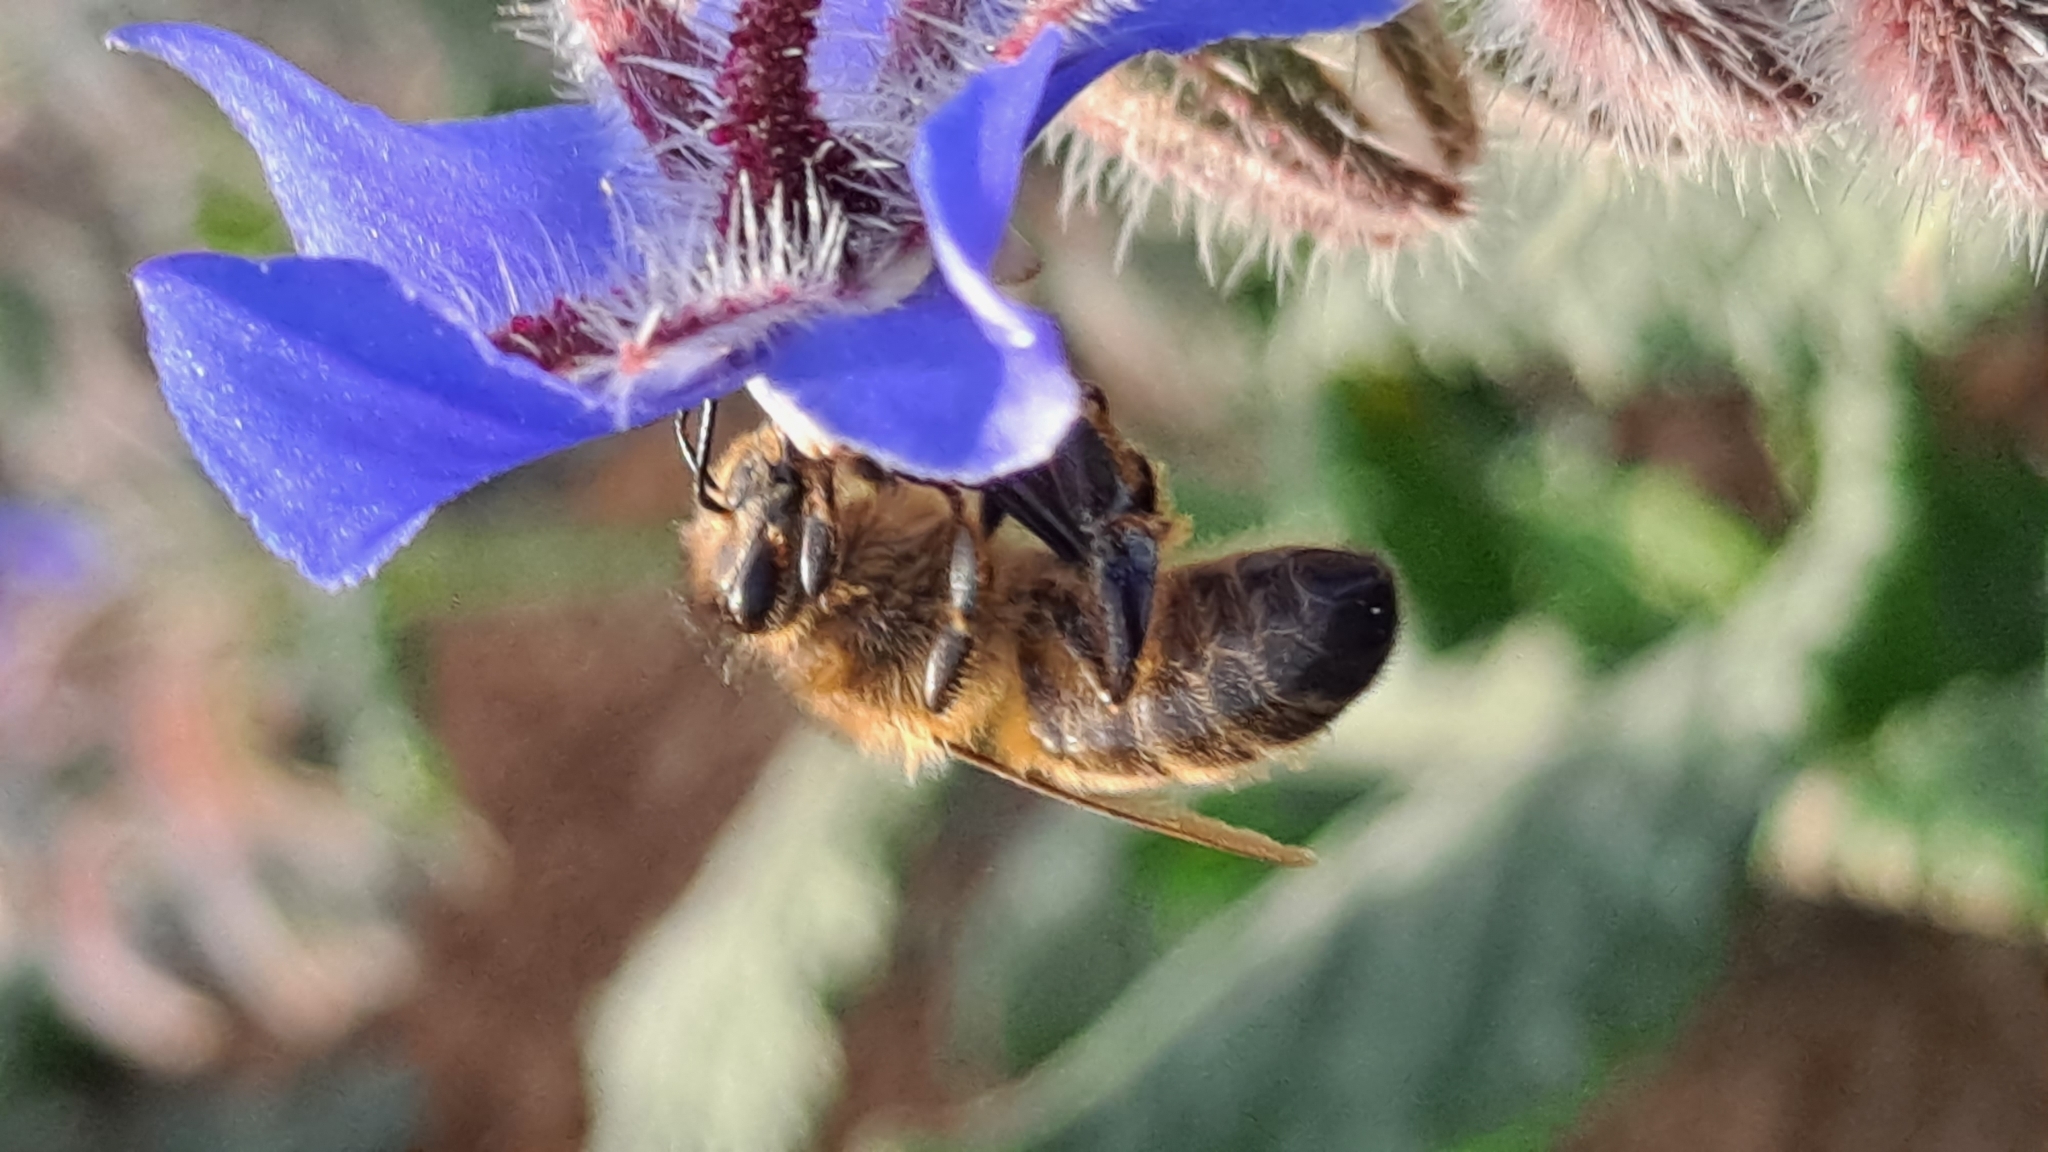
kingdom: Animalia
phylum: Arthropoda
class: Insecta
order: Hymenoptera
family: Apidae
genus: Apis
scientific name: Apis mellifera
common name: Honey bee
